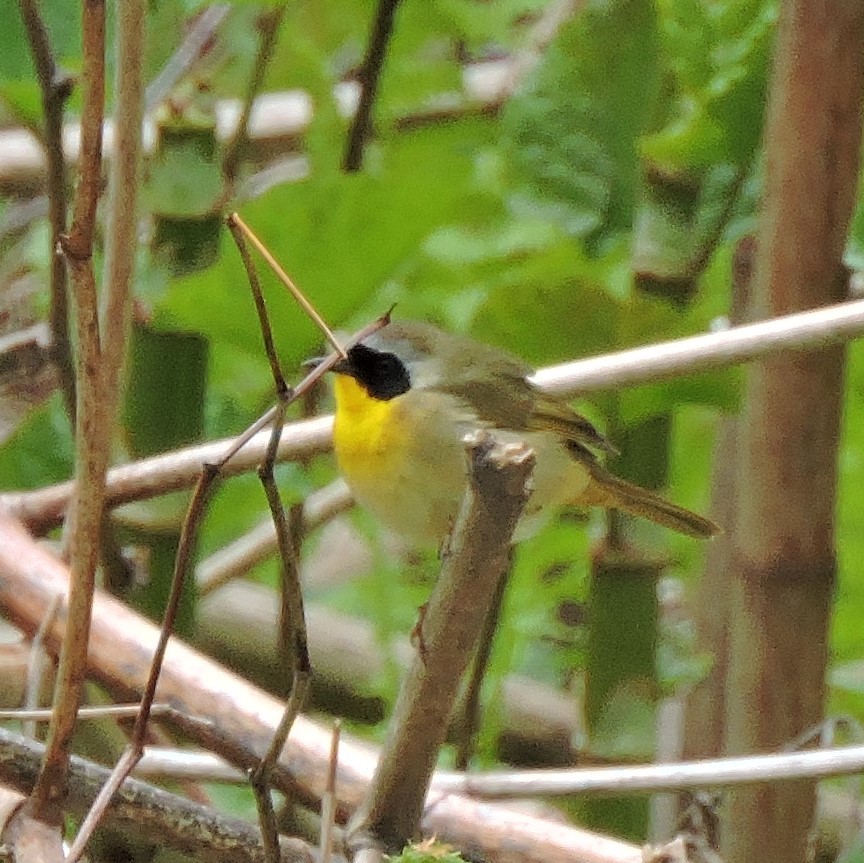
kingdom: Animalia
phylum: Chordata
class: Aves
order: Passeriformes
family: Parulidae
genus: Geothlypis
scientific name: Geothlypis trichas
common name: Common yellowthroat
